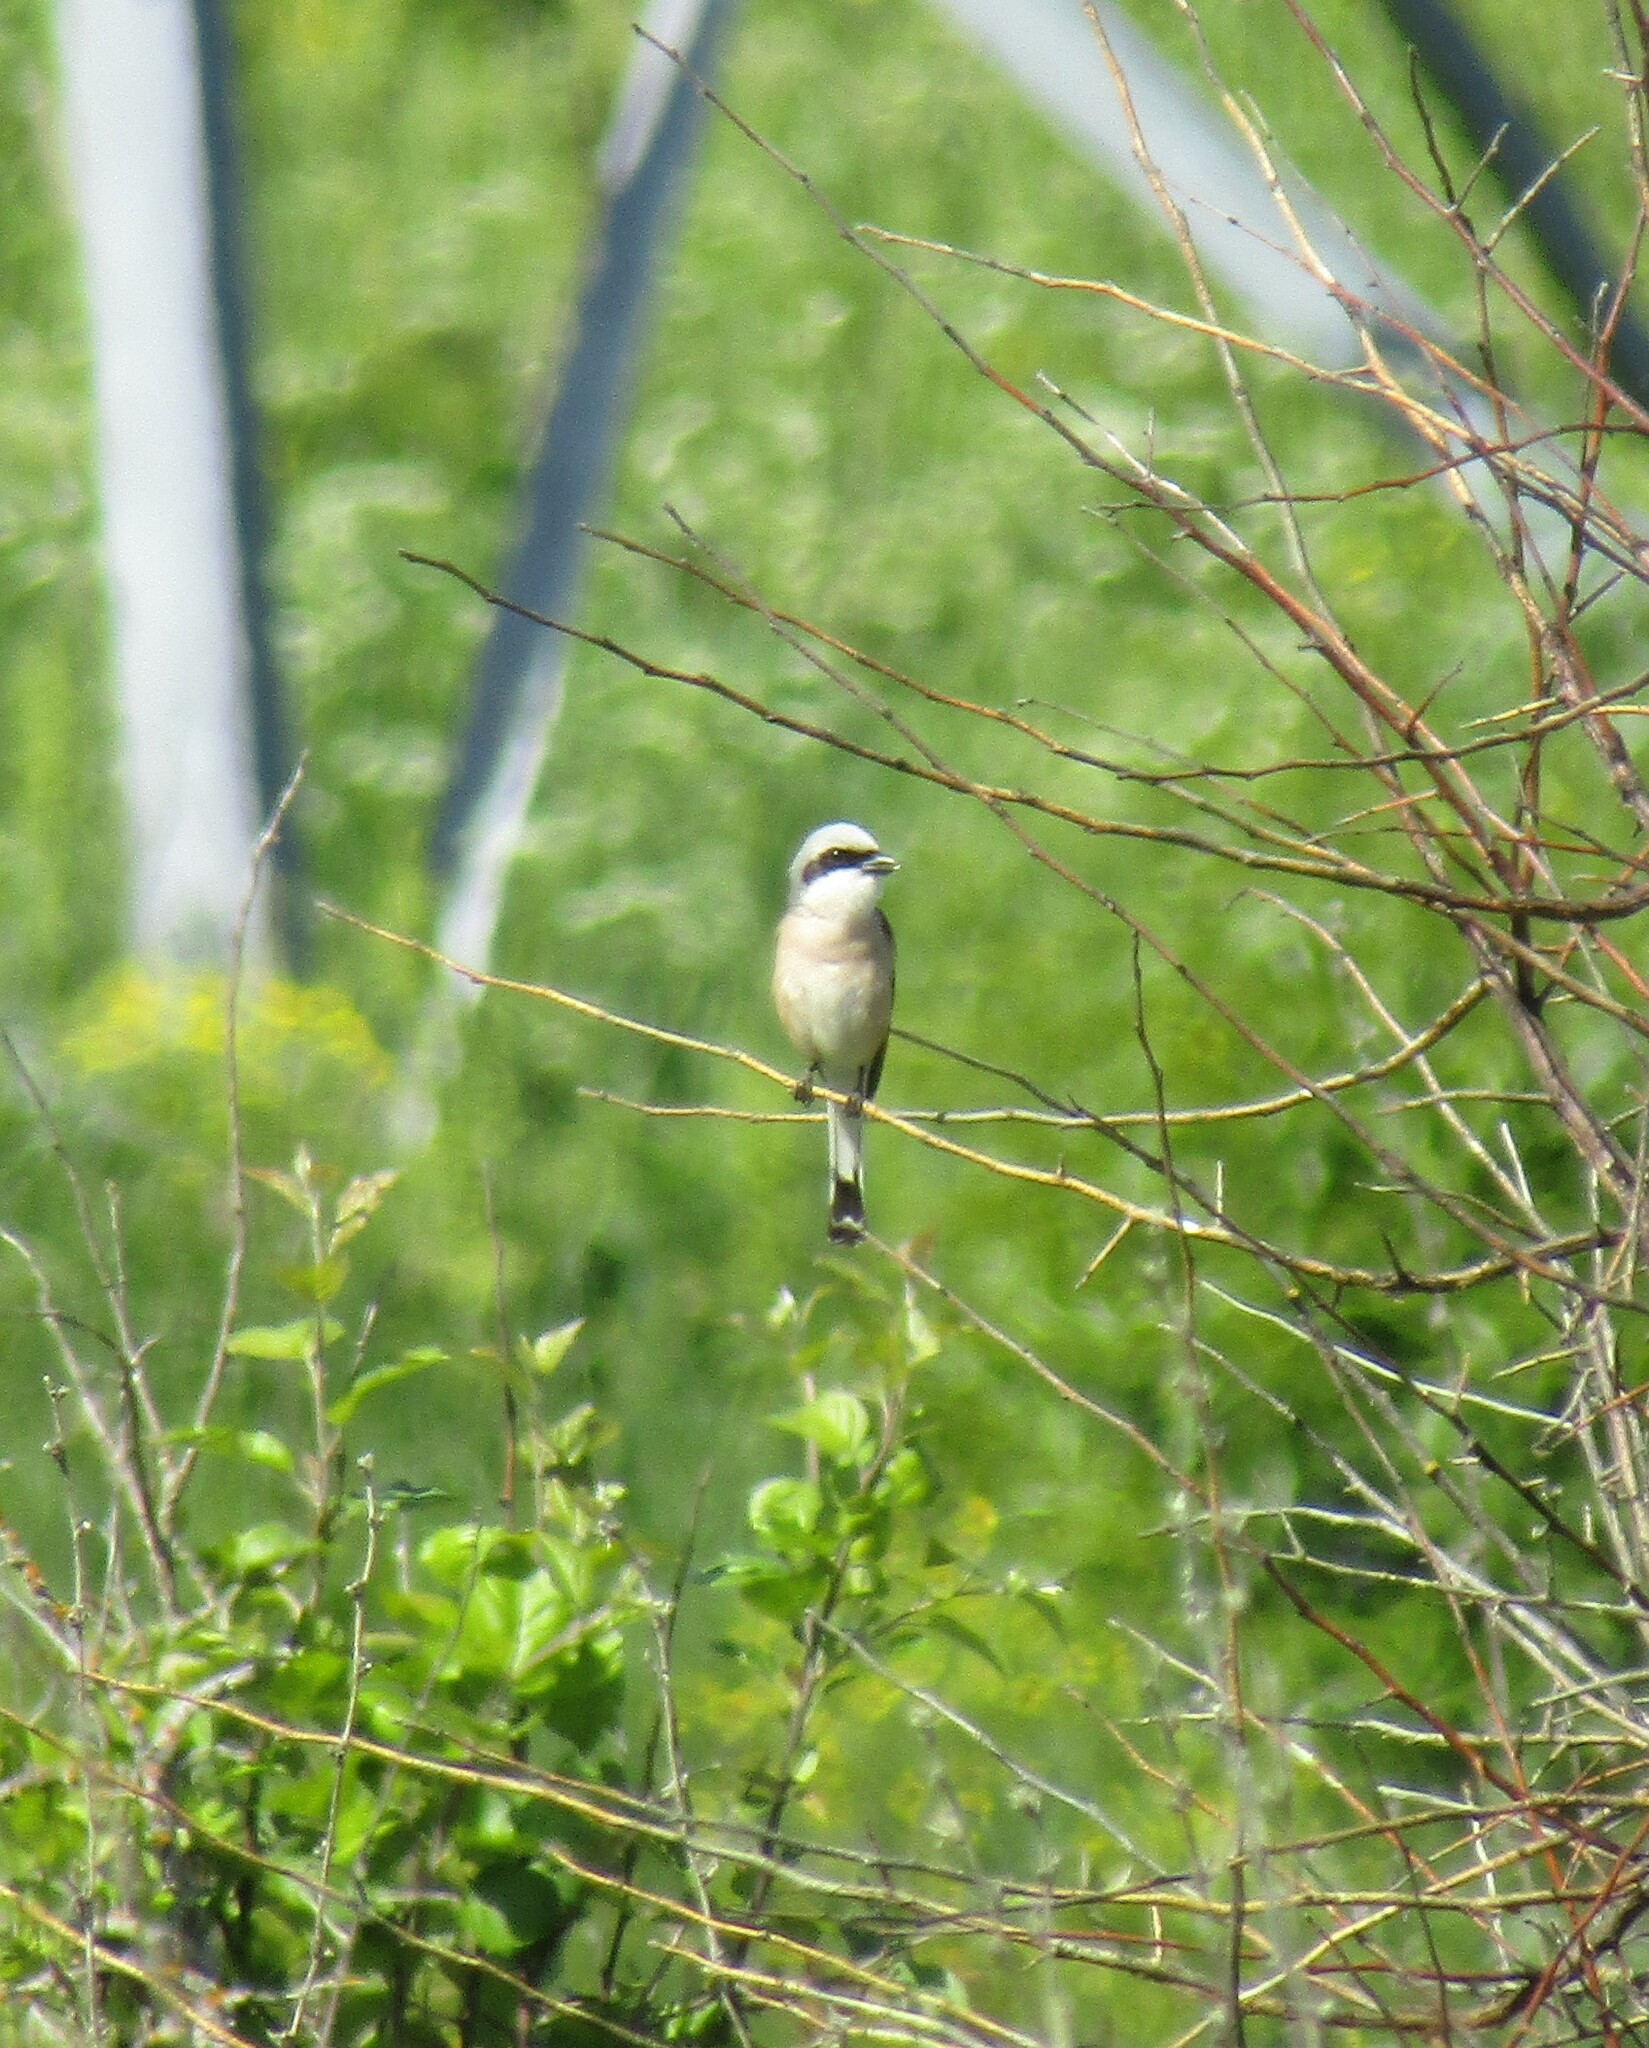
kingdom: Animalia
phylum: Chordata
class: Aves
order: Passeriformes
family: Laniidae
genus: Lanius
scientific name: Lanius collurio
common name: Red-backed shrike
